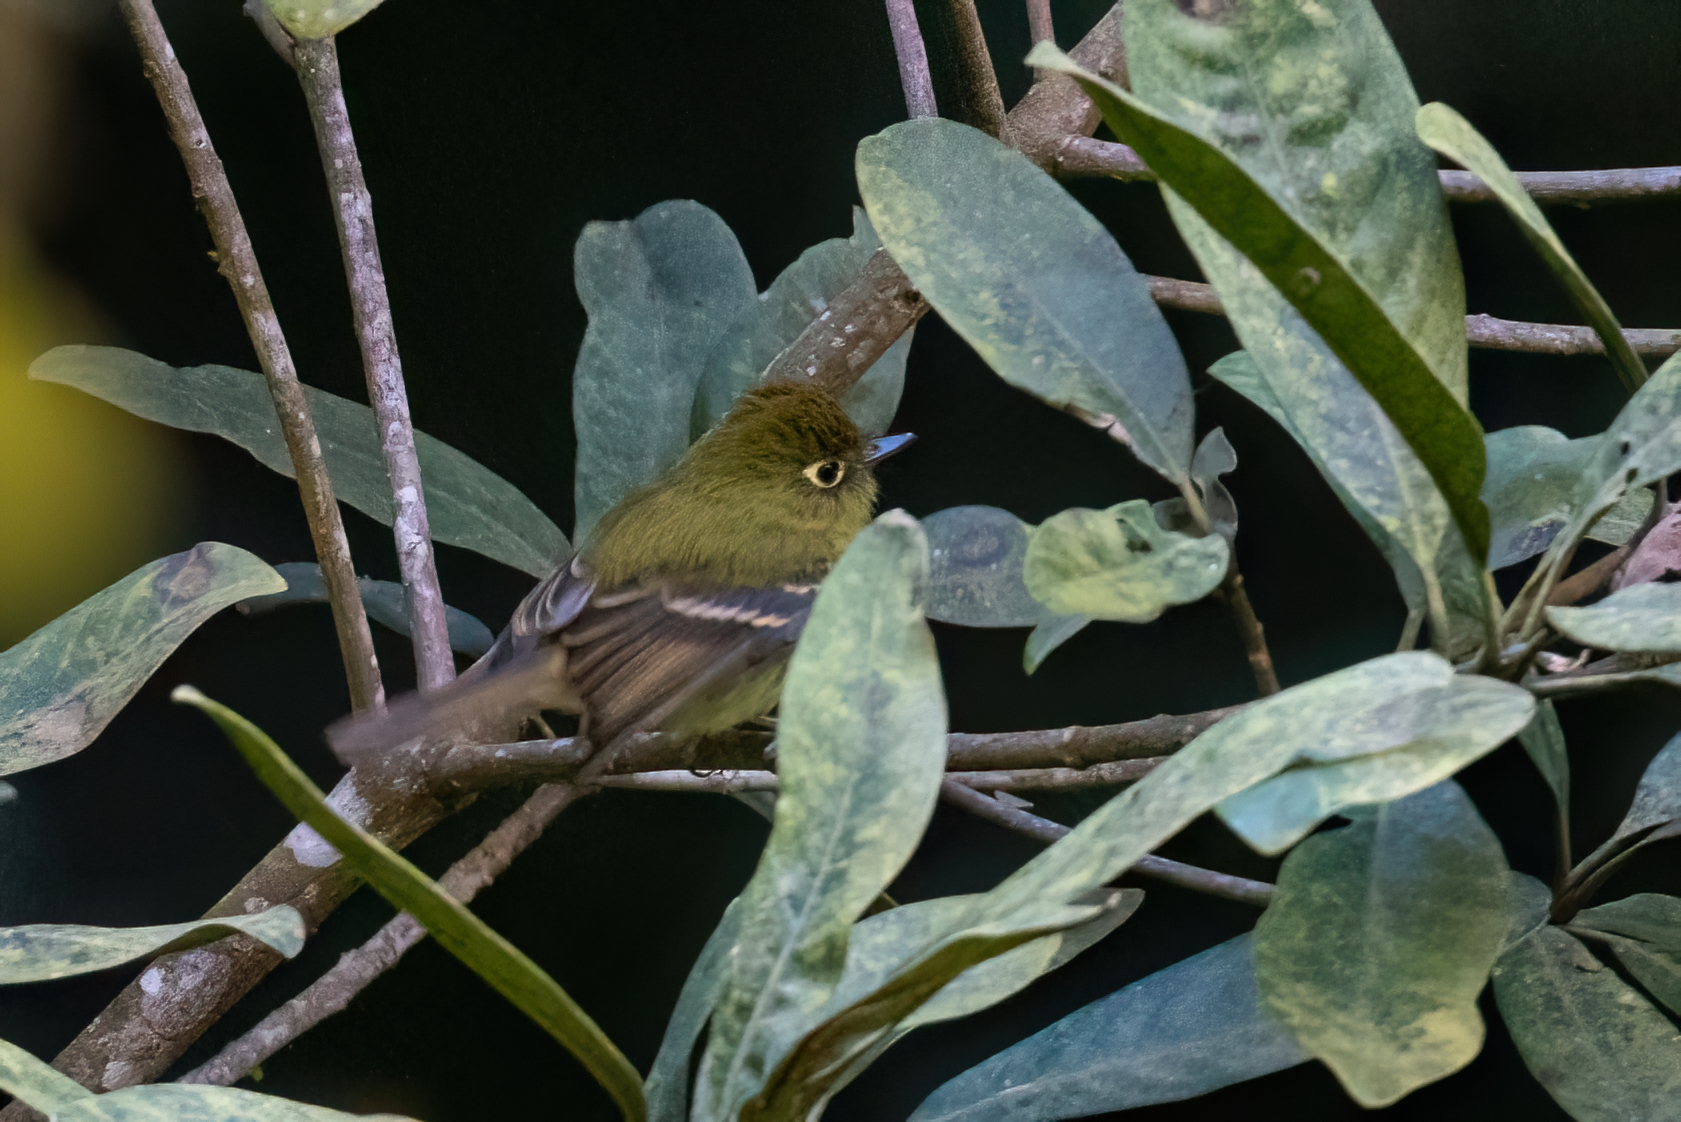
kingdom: Animalia
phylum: Chordata
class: Aves
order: Passeriformes
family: Tyrannidae
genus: Empidonax
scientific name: Empidonax flavescens
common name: Yellowish flycatcher
